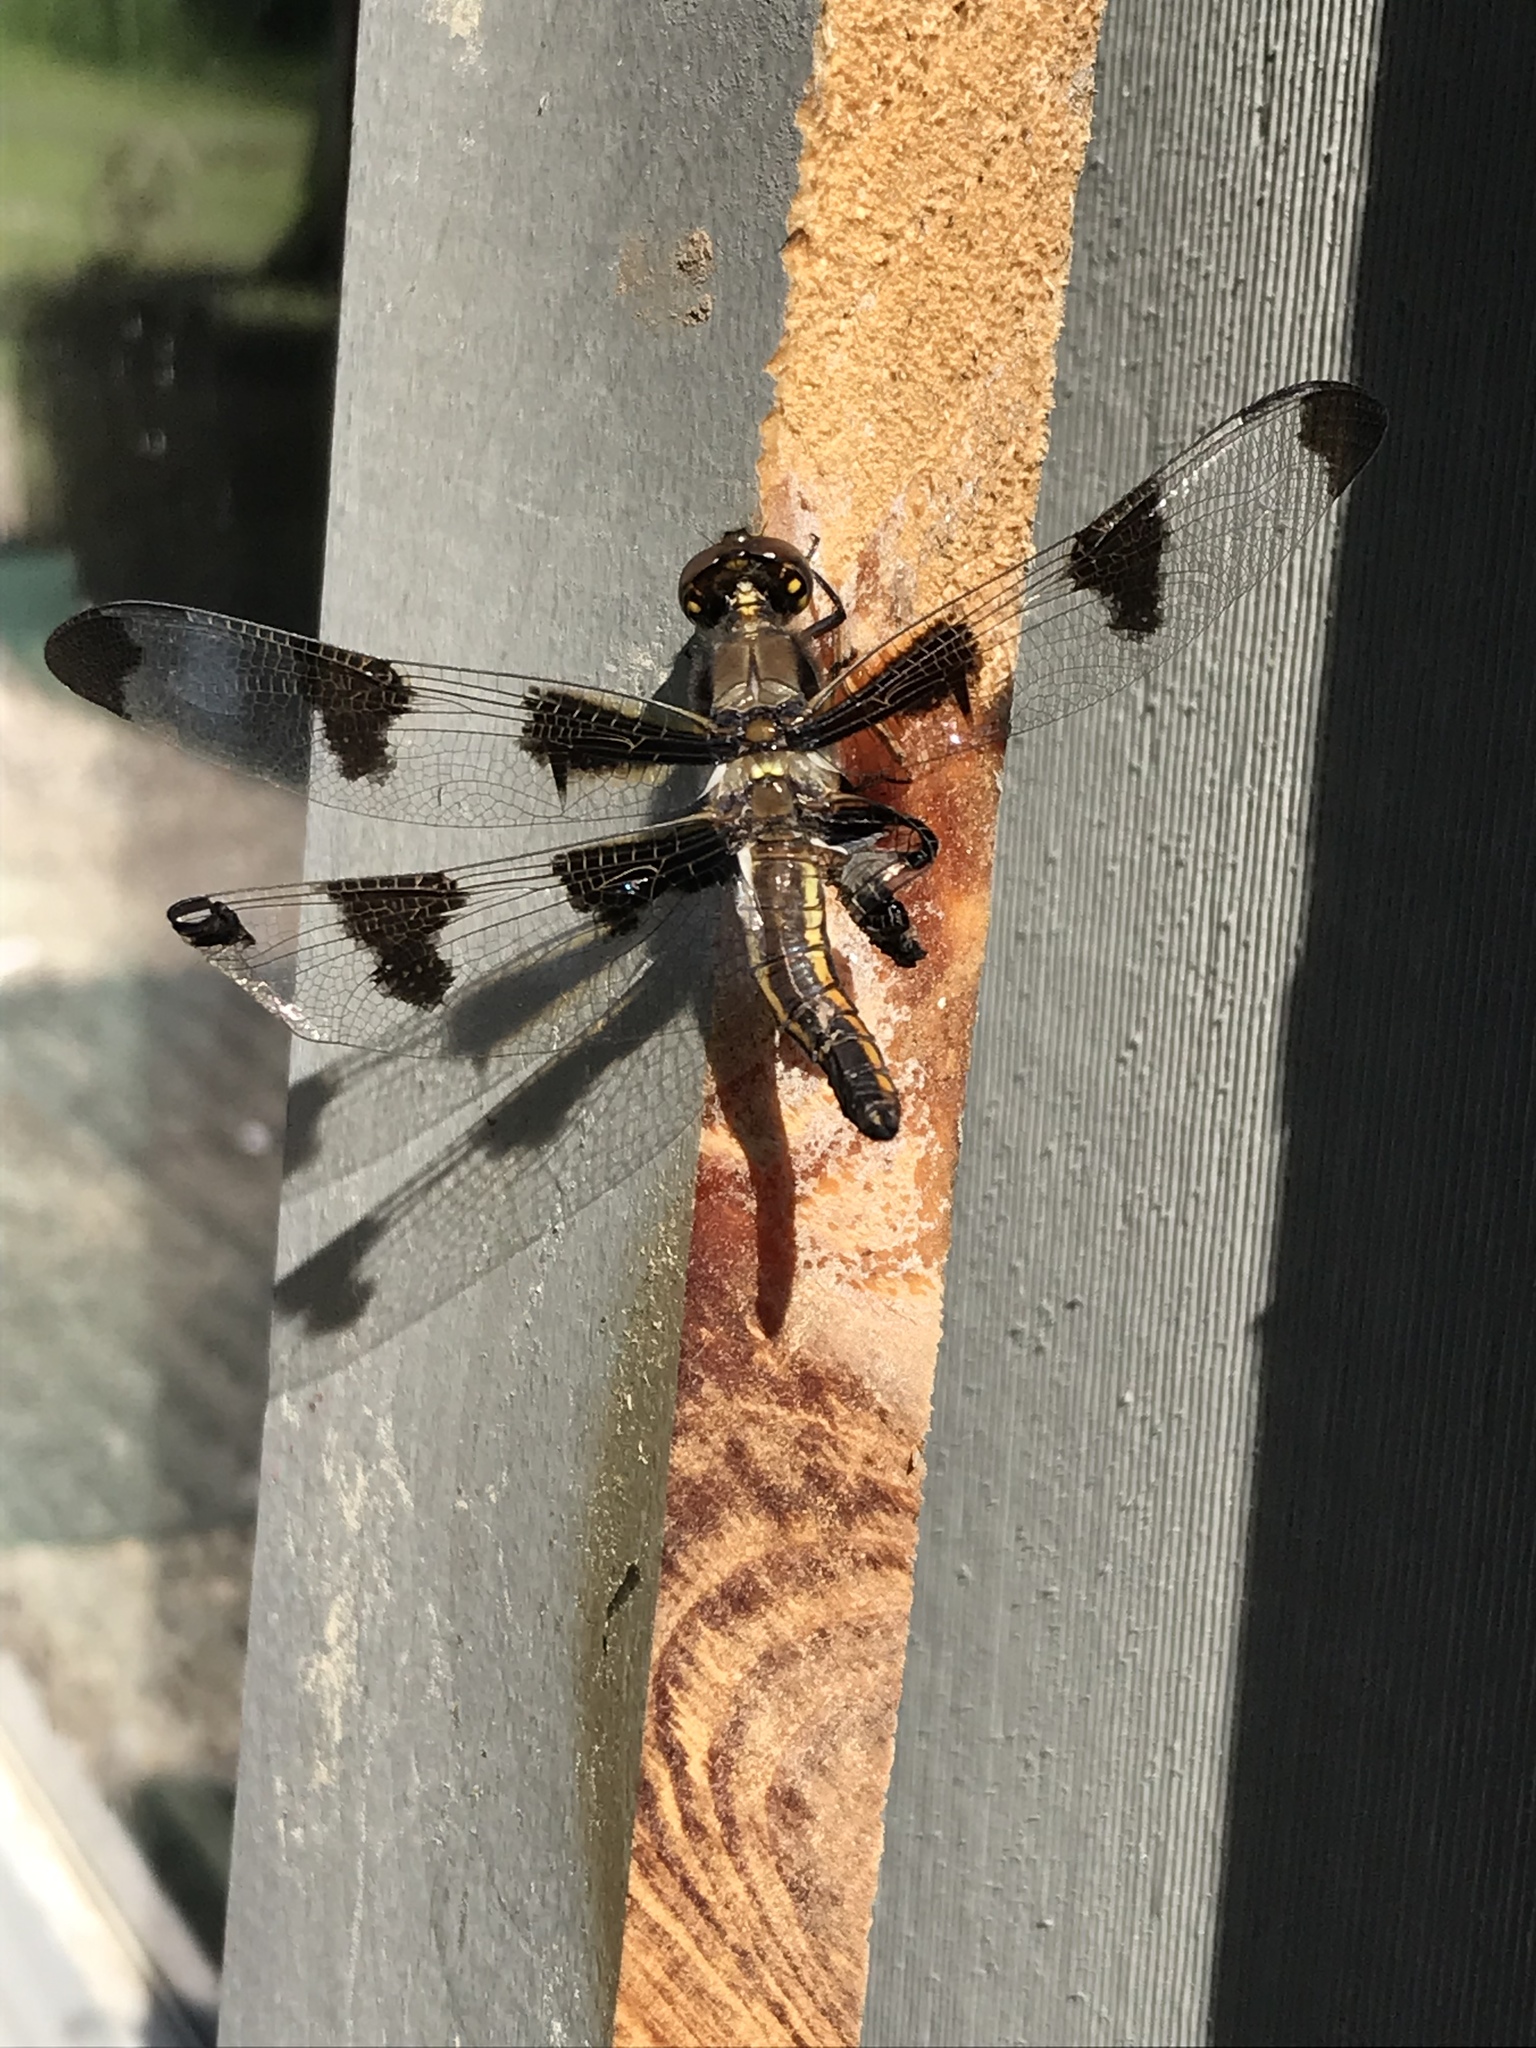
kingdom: Animalia
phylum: Arthropoda
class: Insecta
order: Odonata
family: Libellulidae
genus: Libellula
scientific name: Libellula pulchella
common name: Twelve-spotted skimmer
